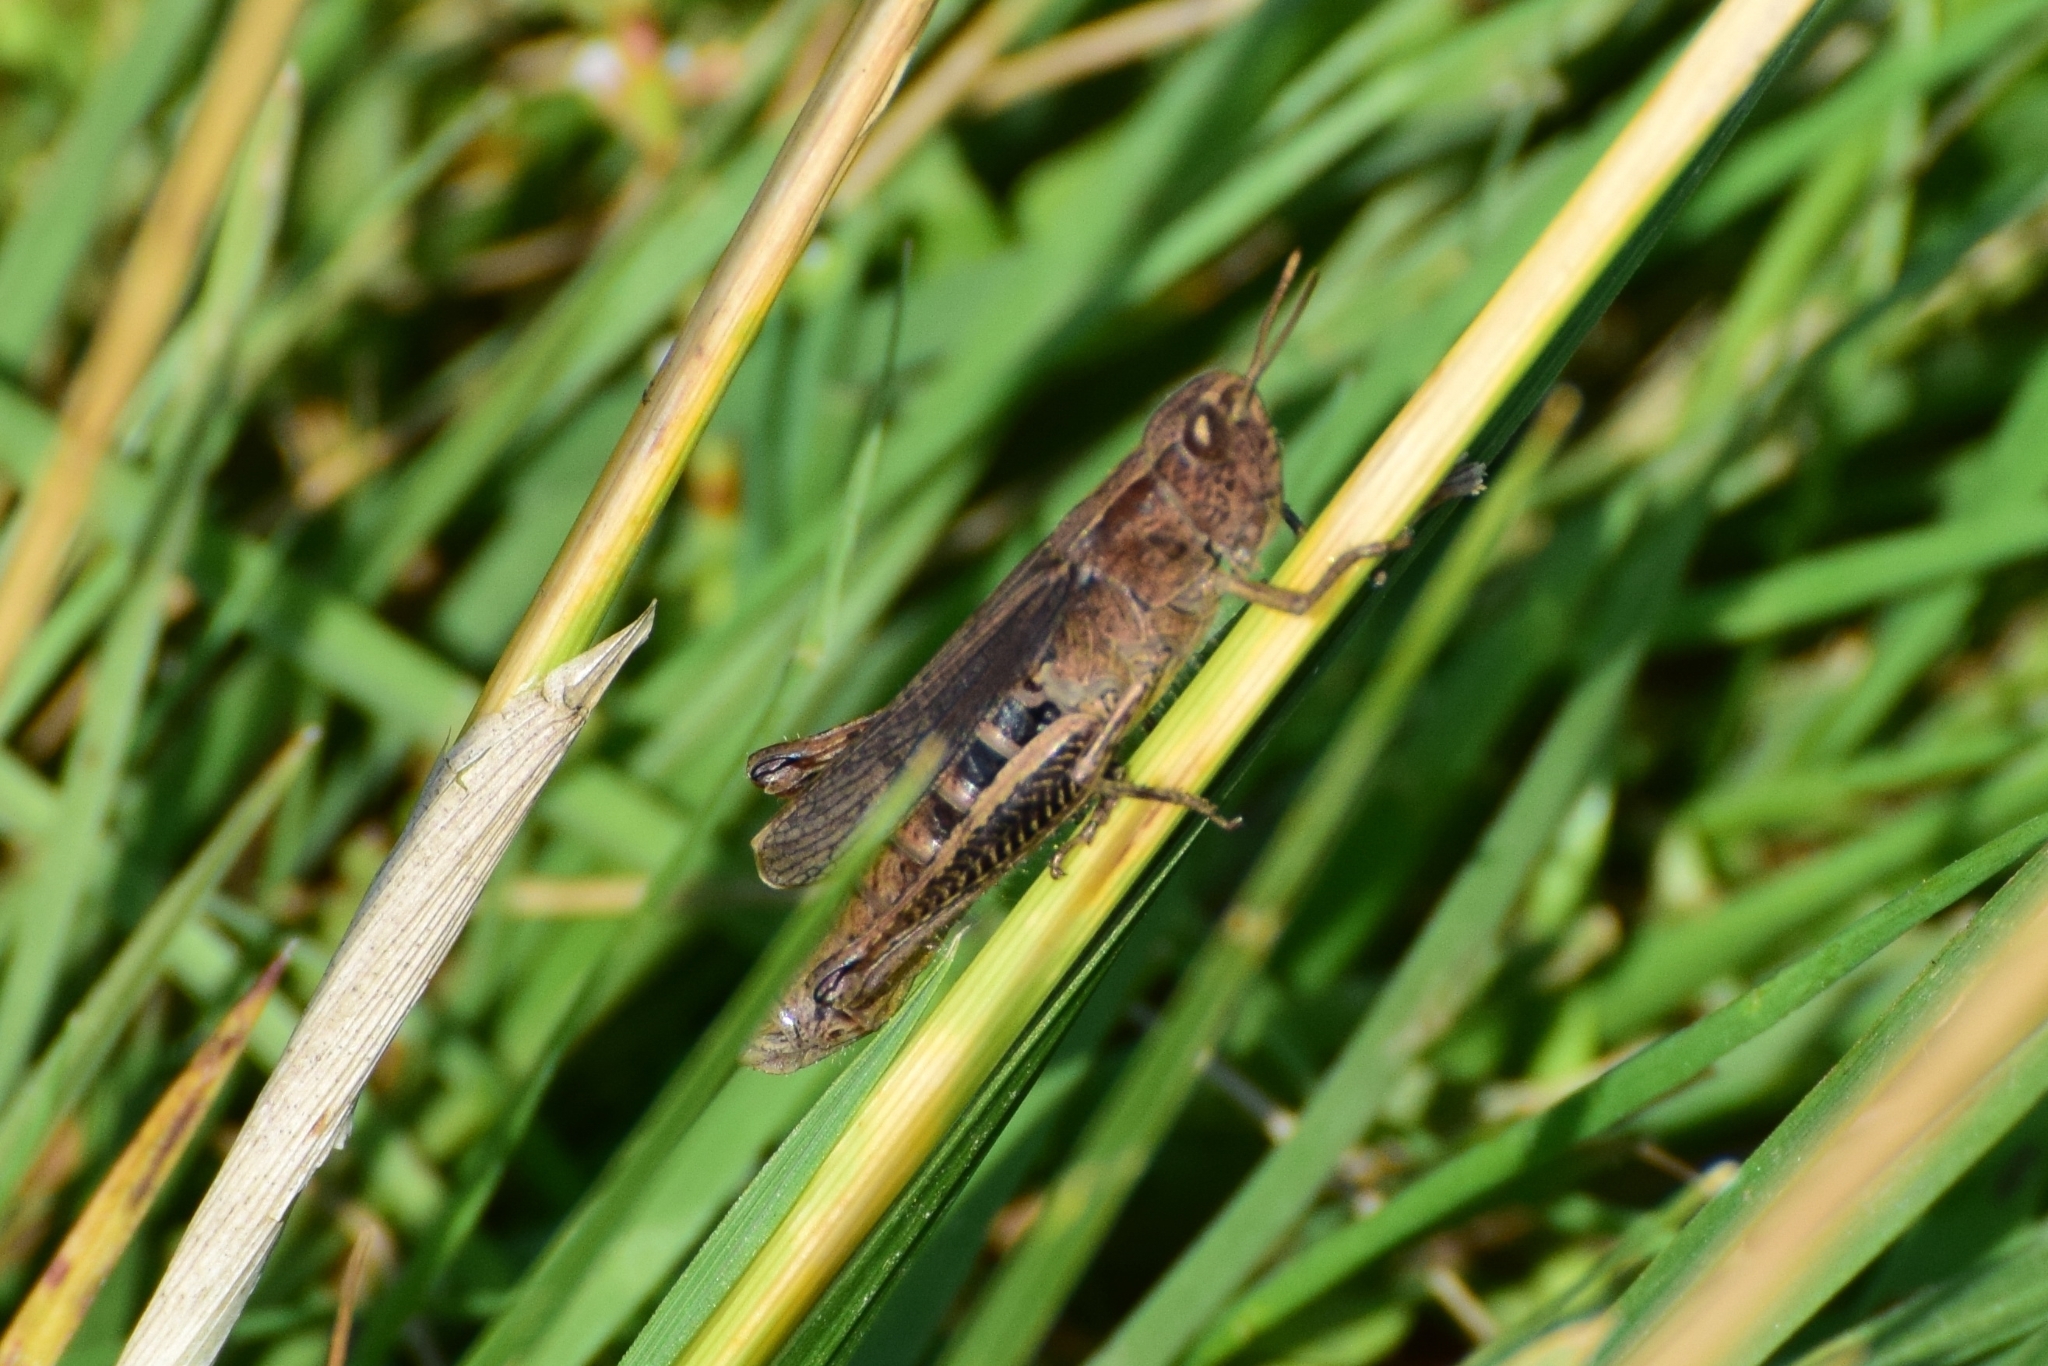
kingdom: Animalia
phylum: Arthropoda
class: Insecta
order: Orthoptera
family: Acrididae
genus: Chorthippus
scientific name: Chorthippus dorsatus
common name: Steppe grasshopper
